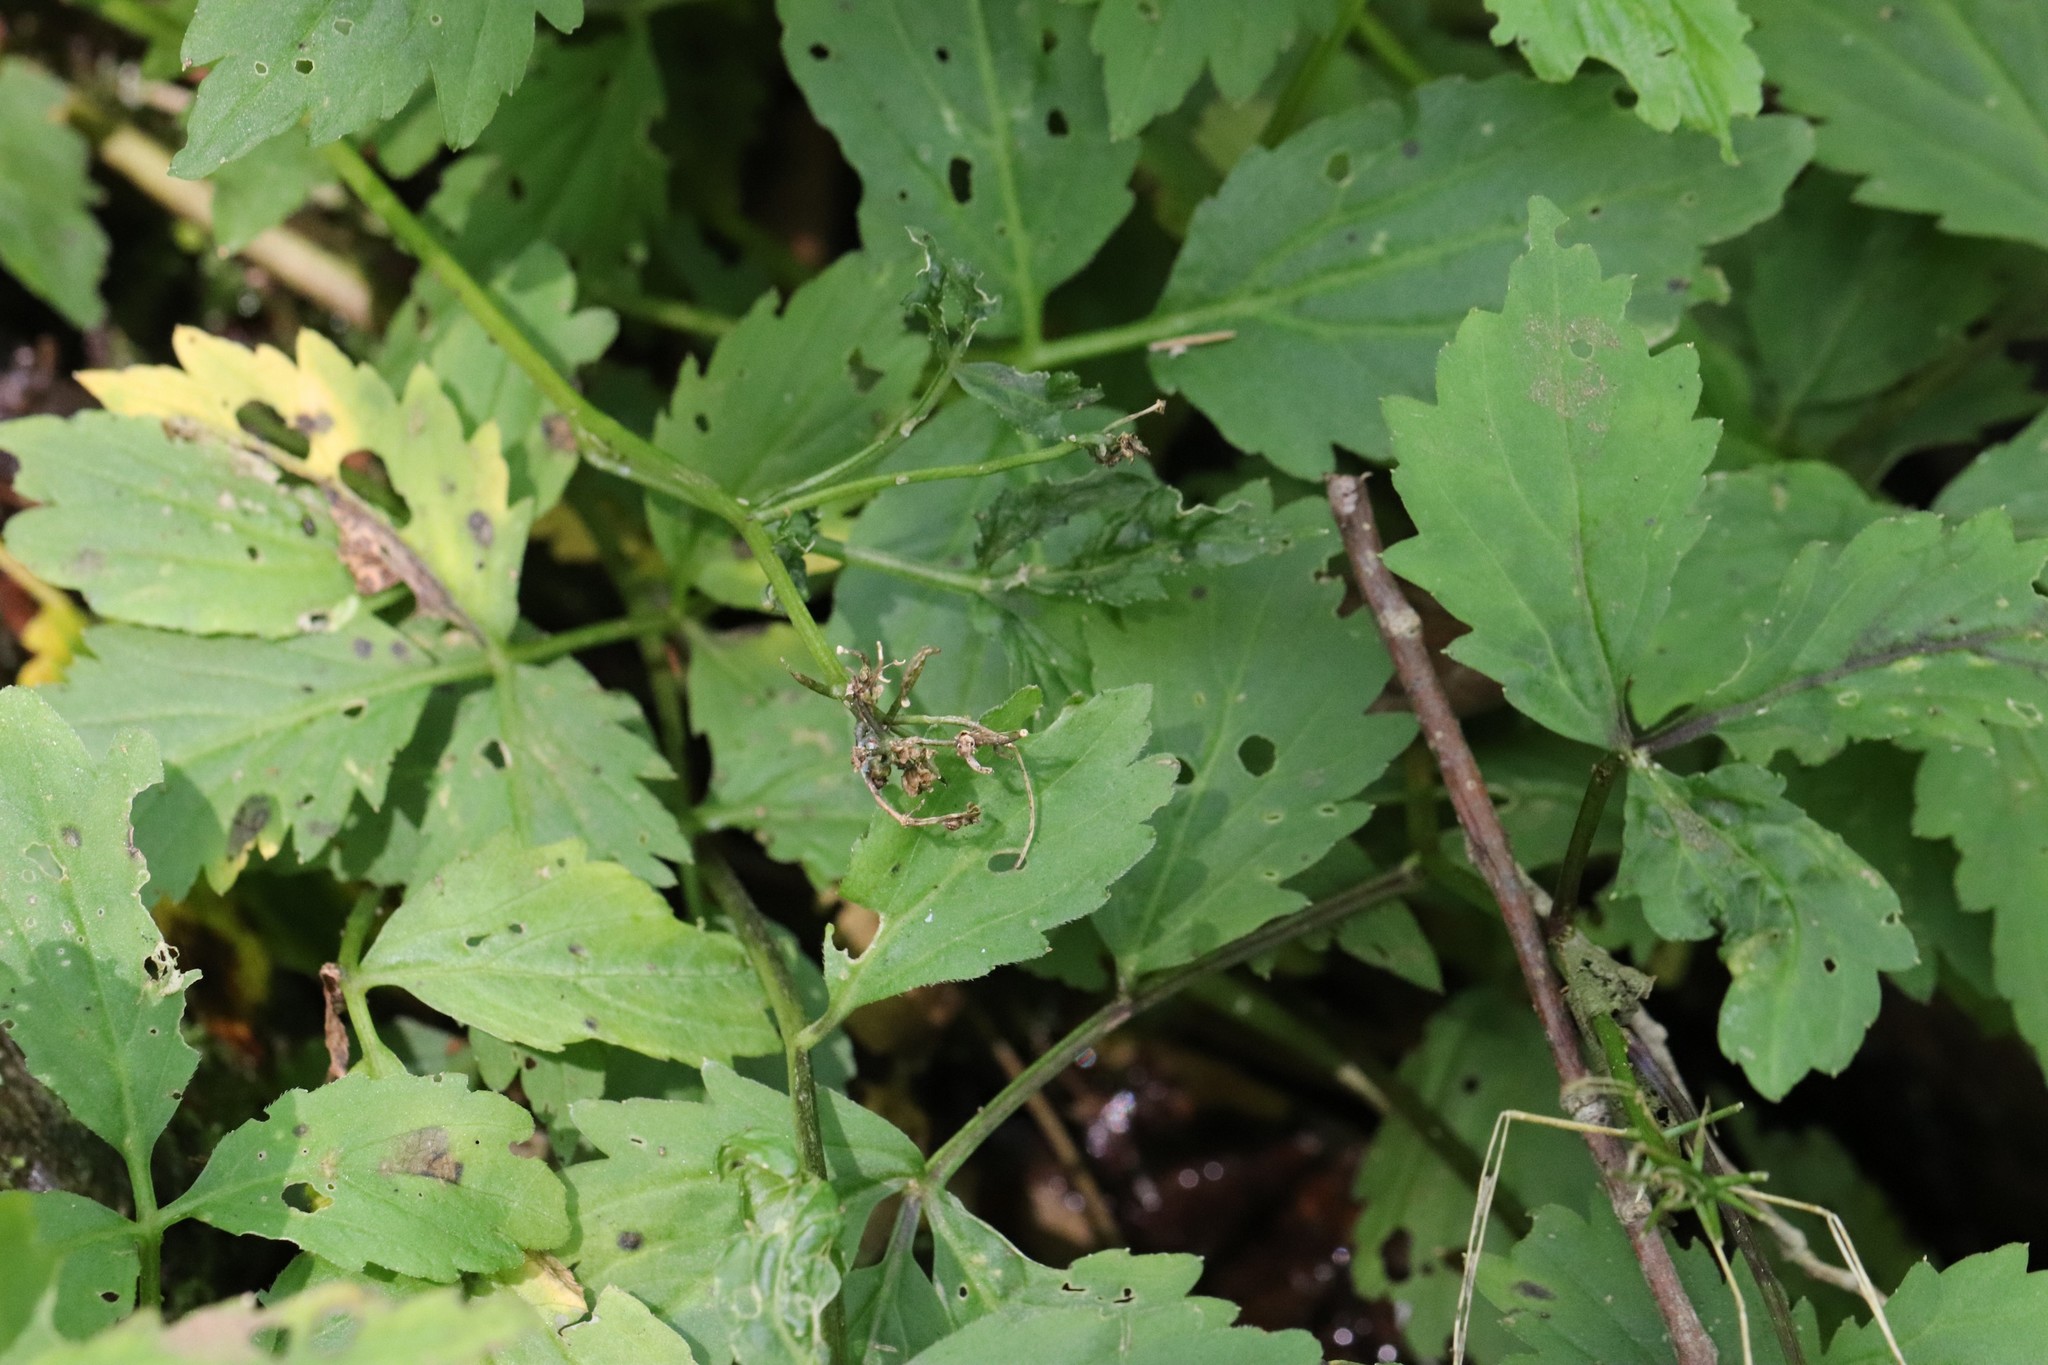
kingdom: Plantae
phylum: Tracheophyta
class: Magnoliopsida
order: Brassicales
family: Brassicaceae
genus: Cardamine
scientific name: Cardamine macrophylla
